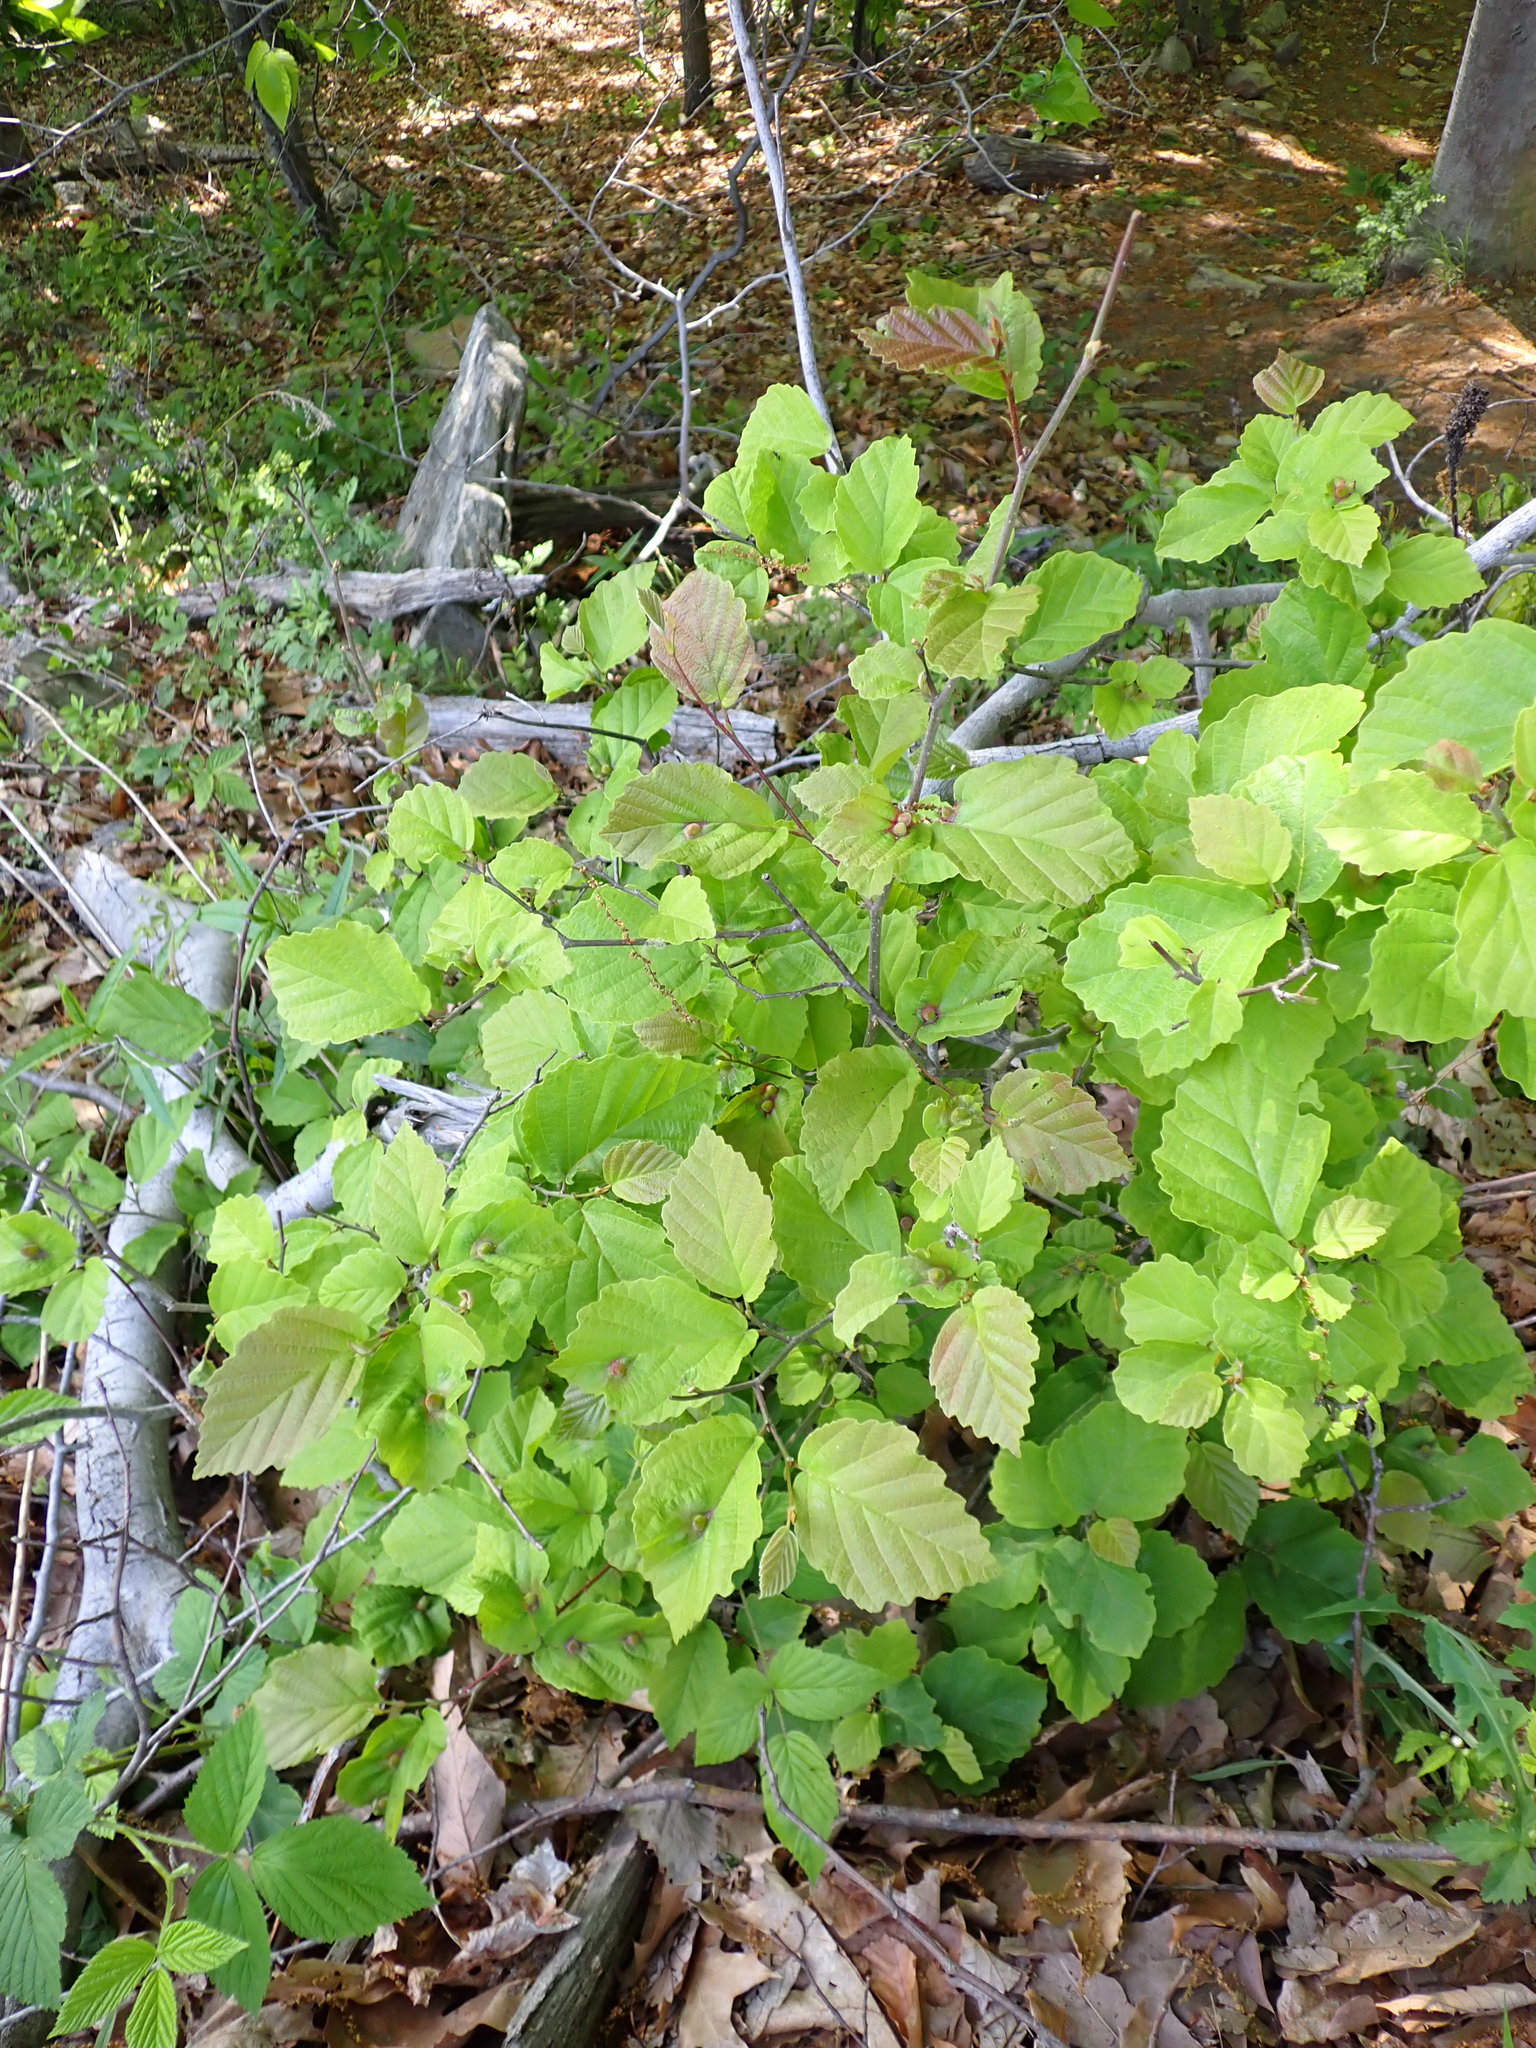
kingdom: Animalia
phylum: Arthropoda
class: Insecta
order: Hemiptera
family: Aphididae
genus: Hormaphis
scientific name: Hormaphis hamamelidis
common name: Witch-hazel cone gall aphid
